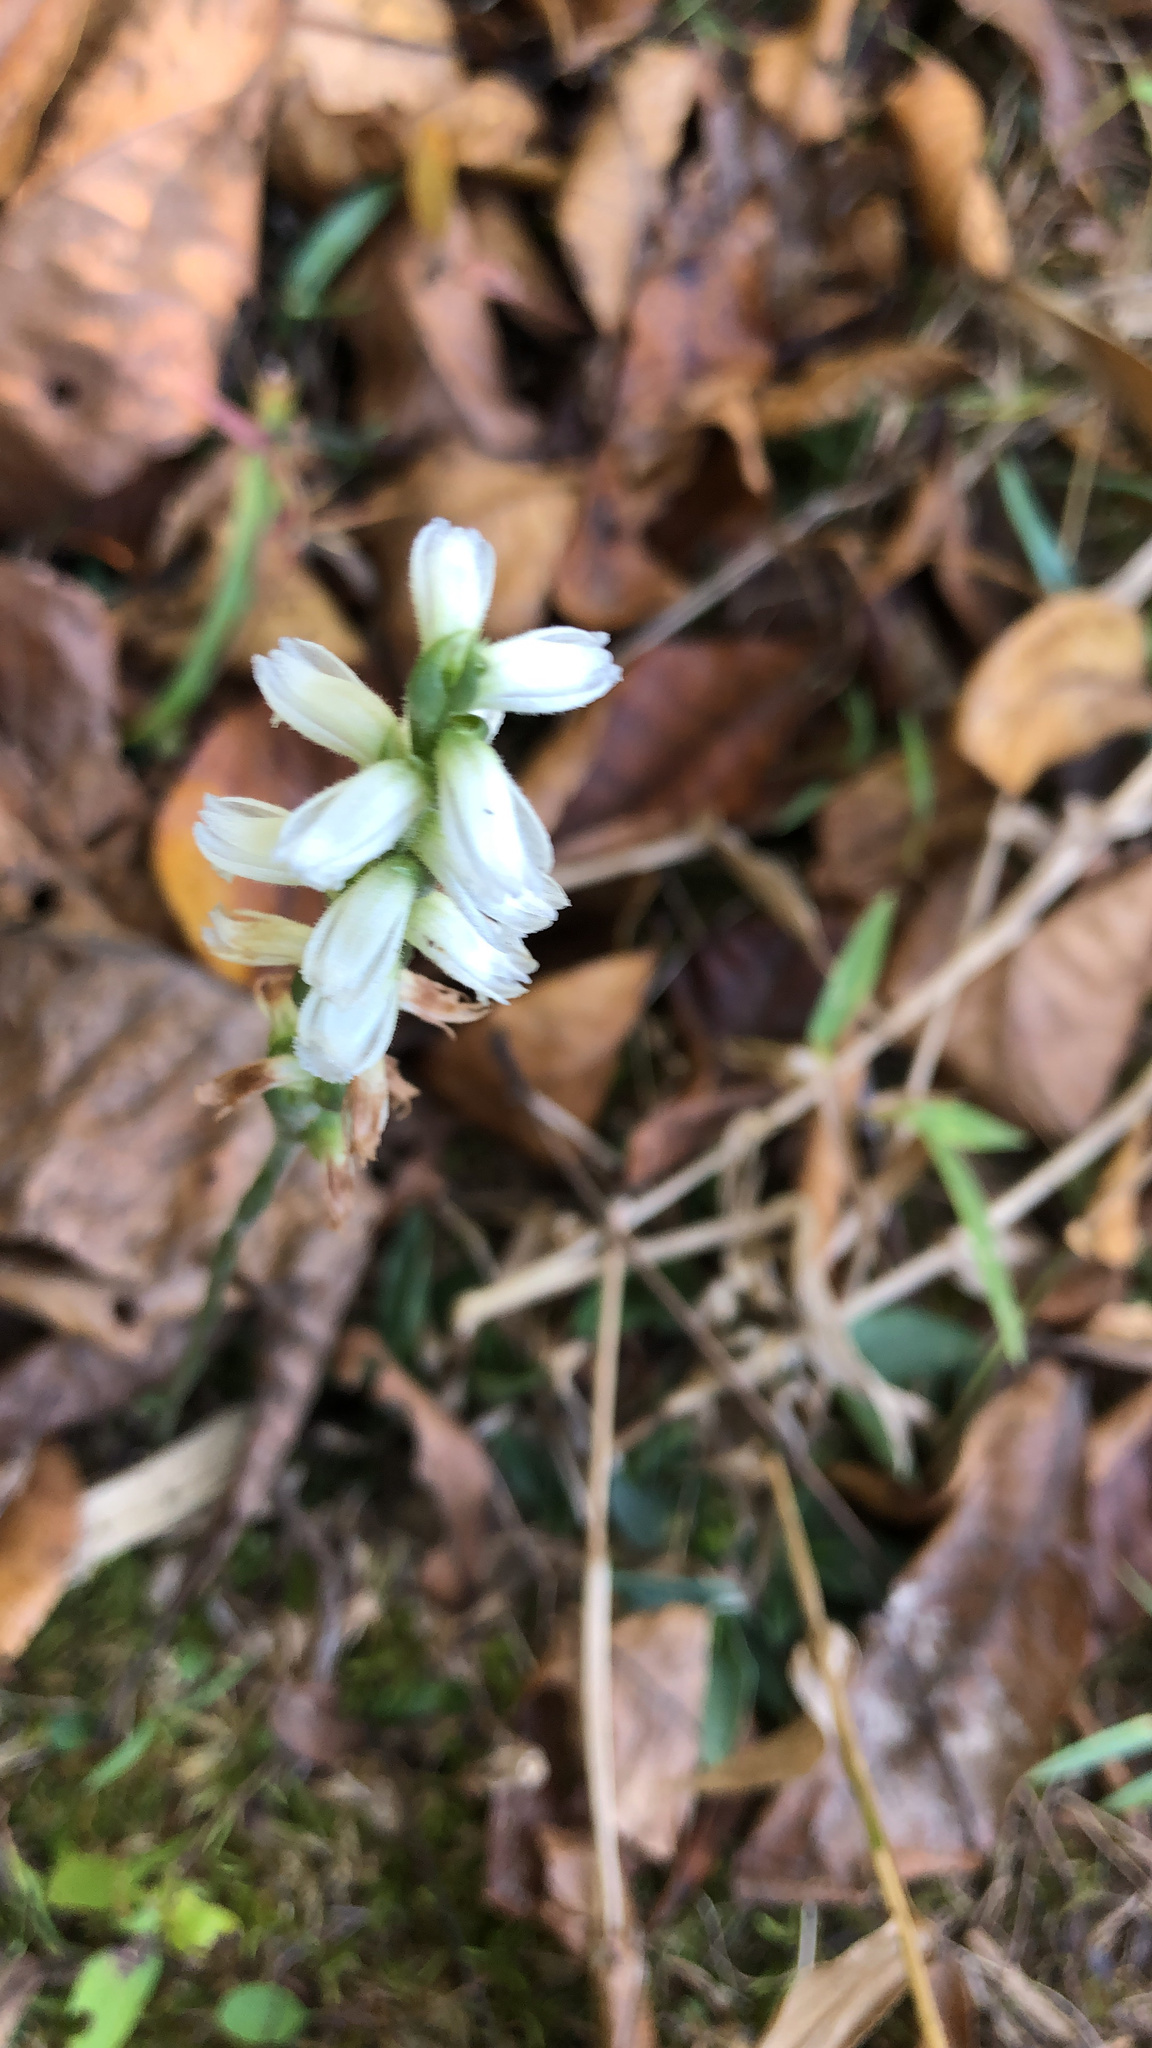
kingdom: Plantae
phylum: Tracheophyta
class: Liliopsida
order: Asparagales
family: Orchidaceae
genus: Spiranthes
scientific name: Spiranthes cernua
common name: Dropping ladies'-tresses
